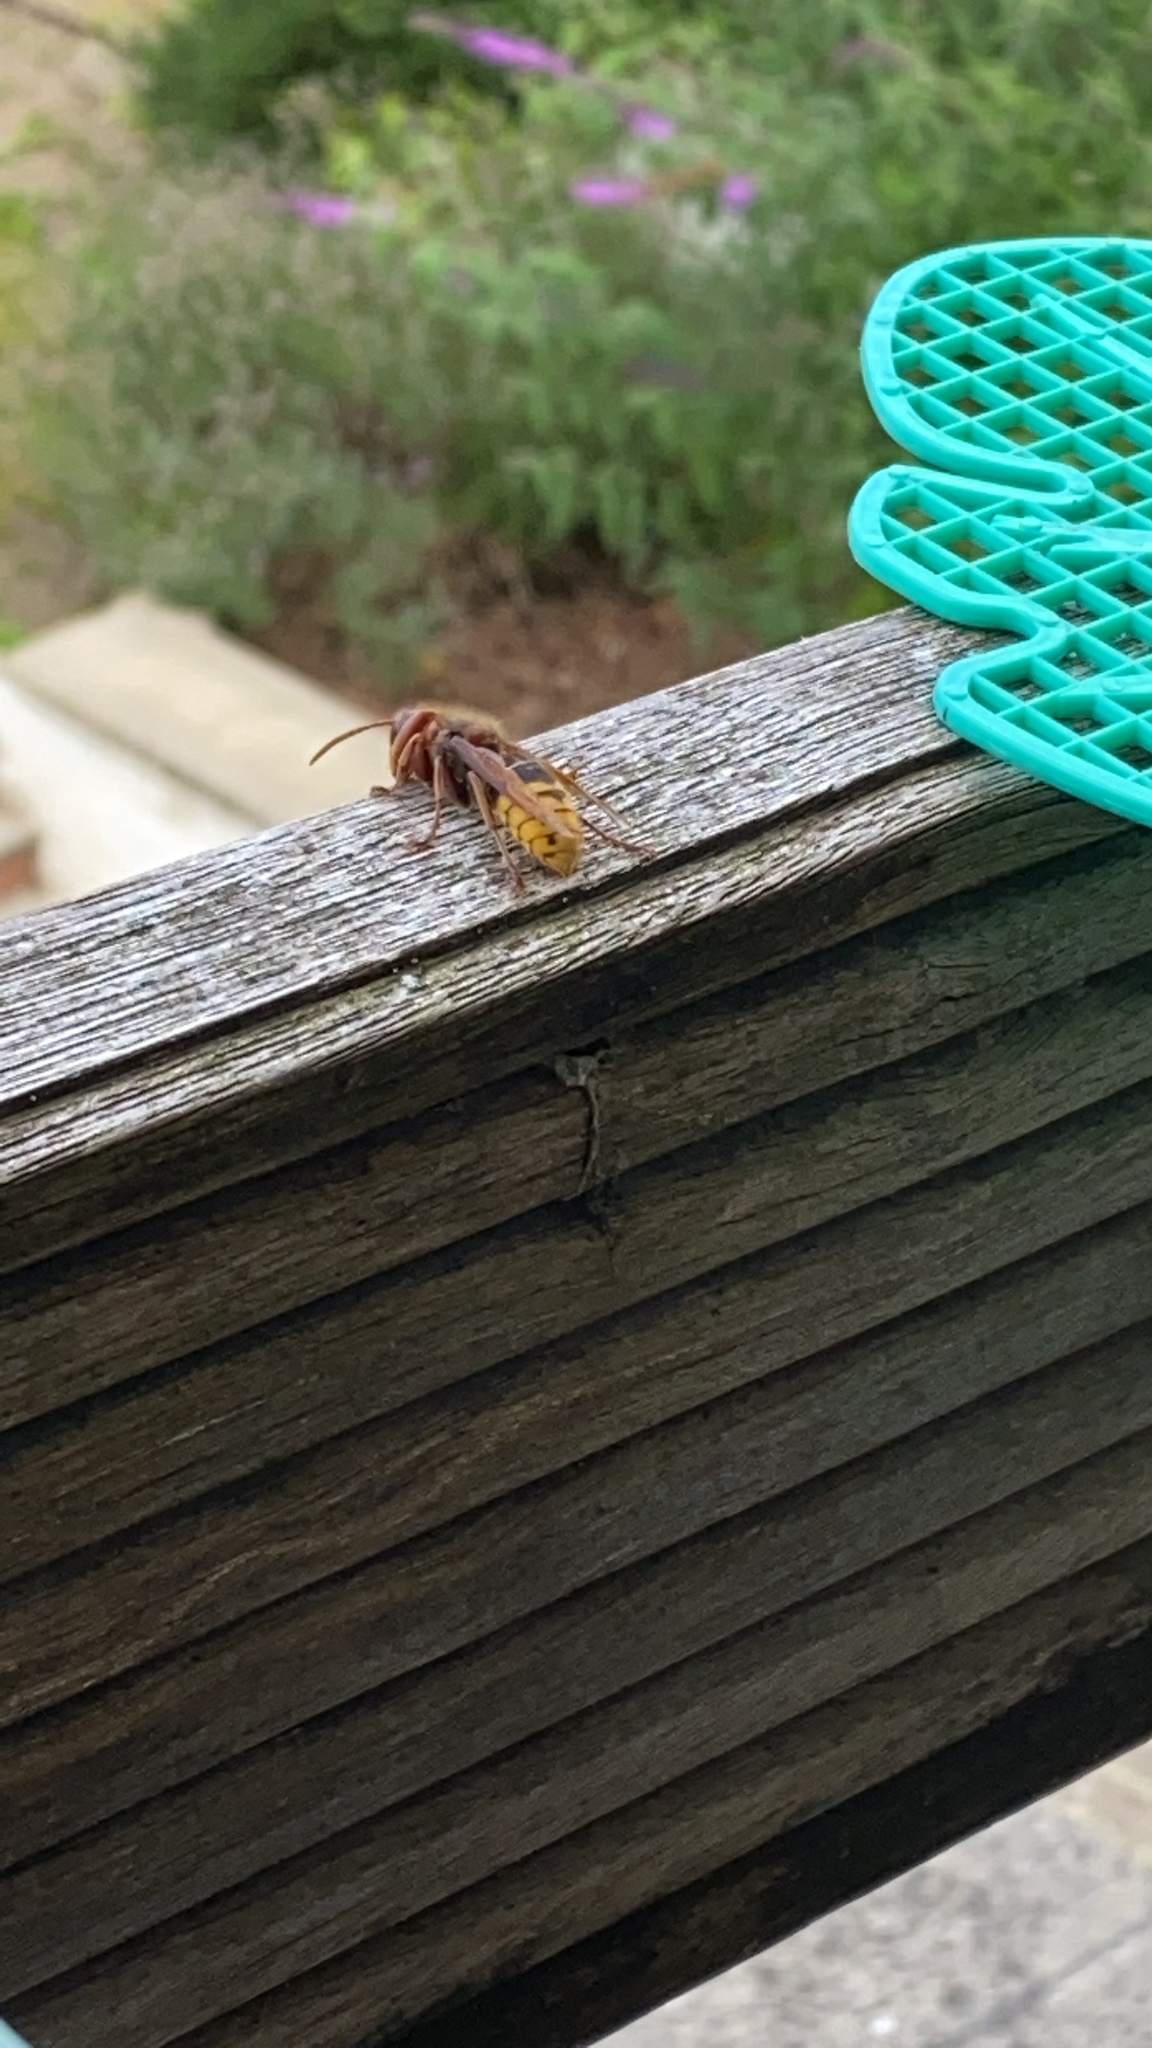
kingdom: Animalia
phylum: Arthropoda
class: Insecta
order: Hymenoptera
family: Vespidae
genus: Vespa
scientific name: Vespa crabro
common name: Hornet
